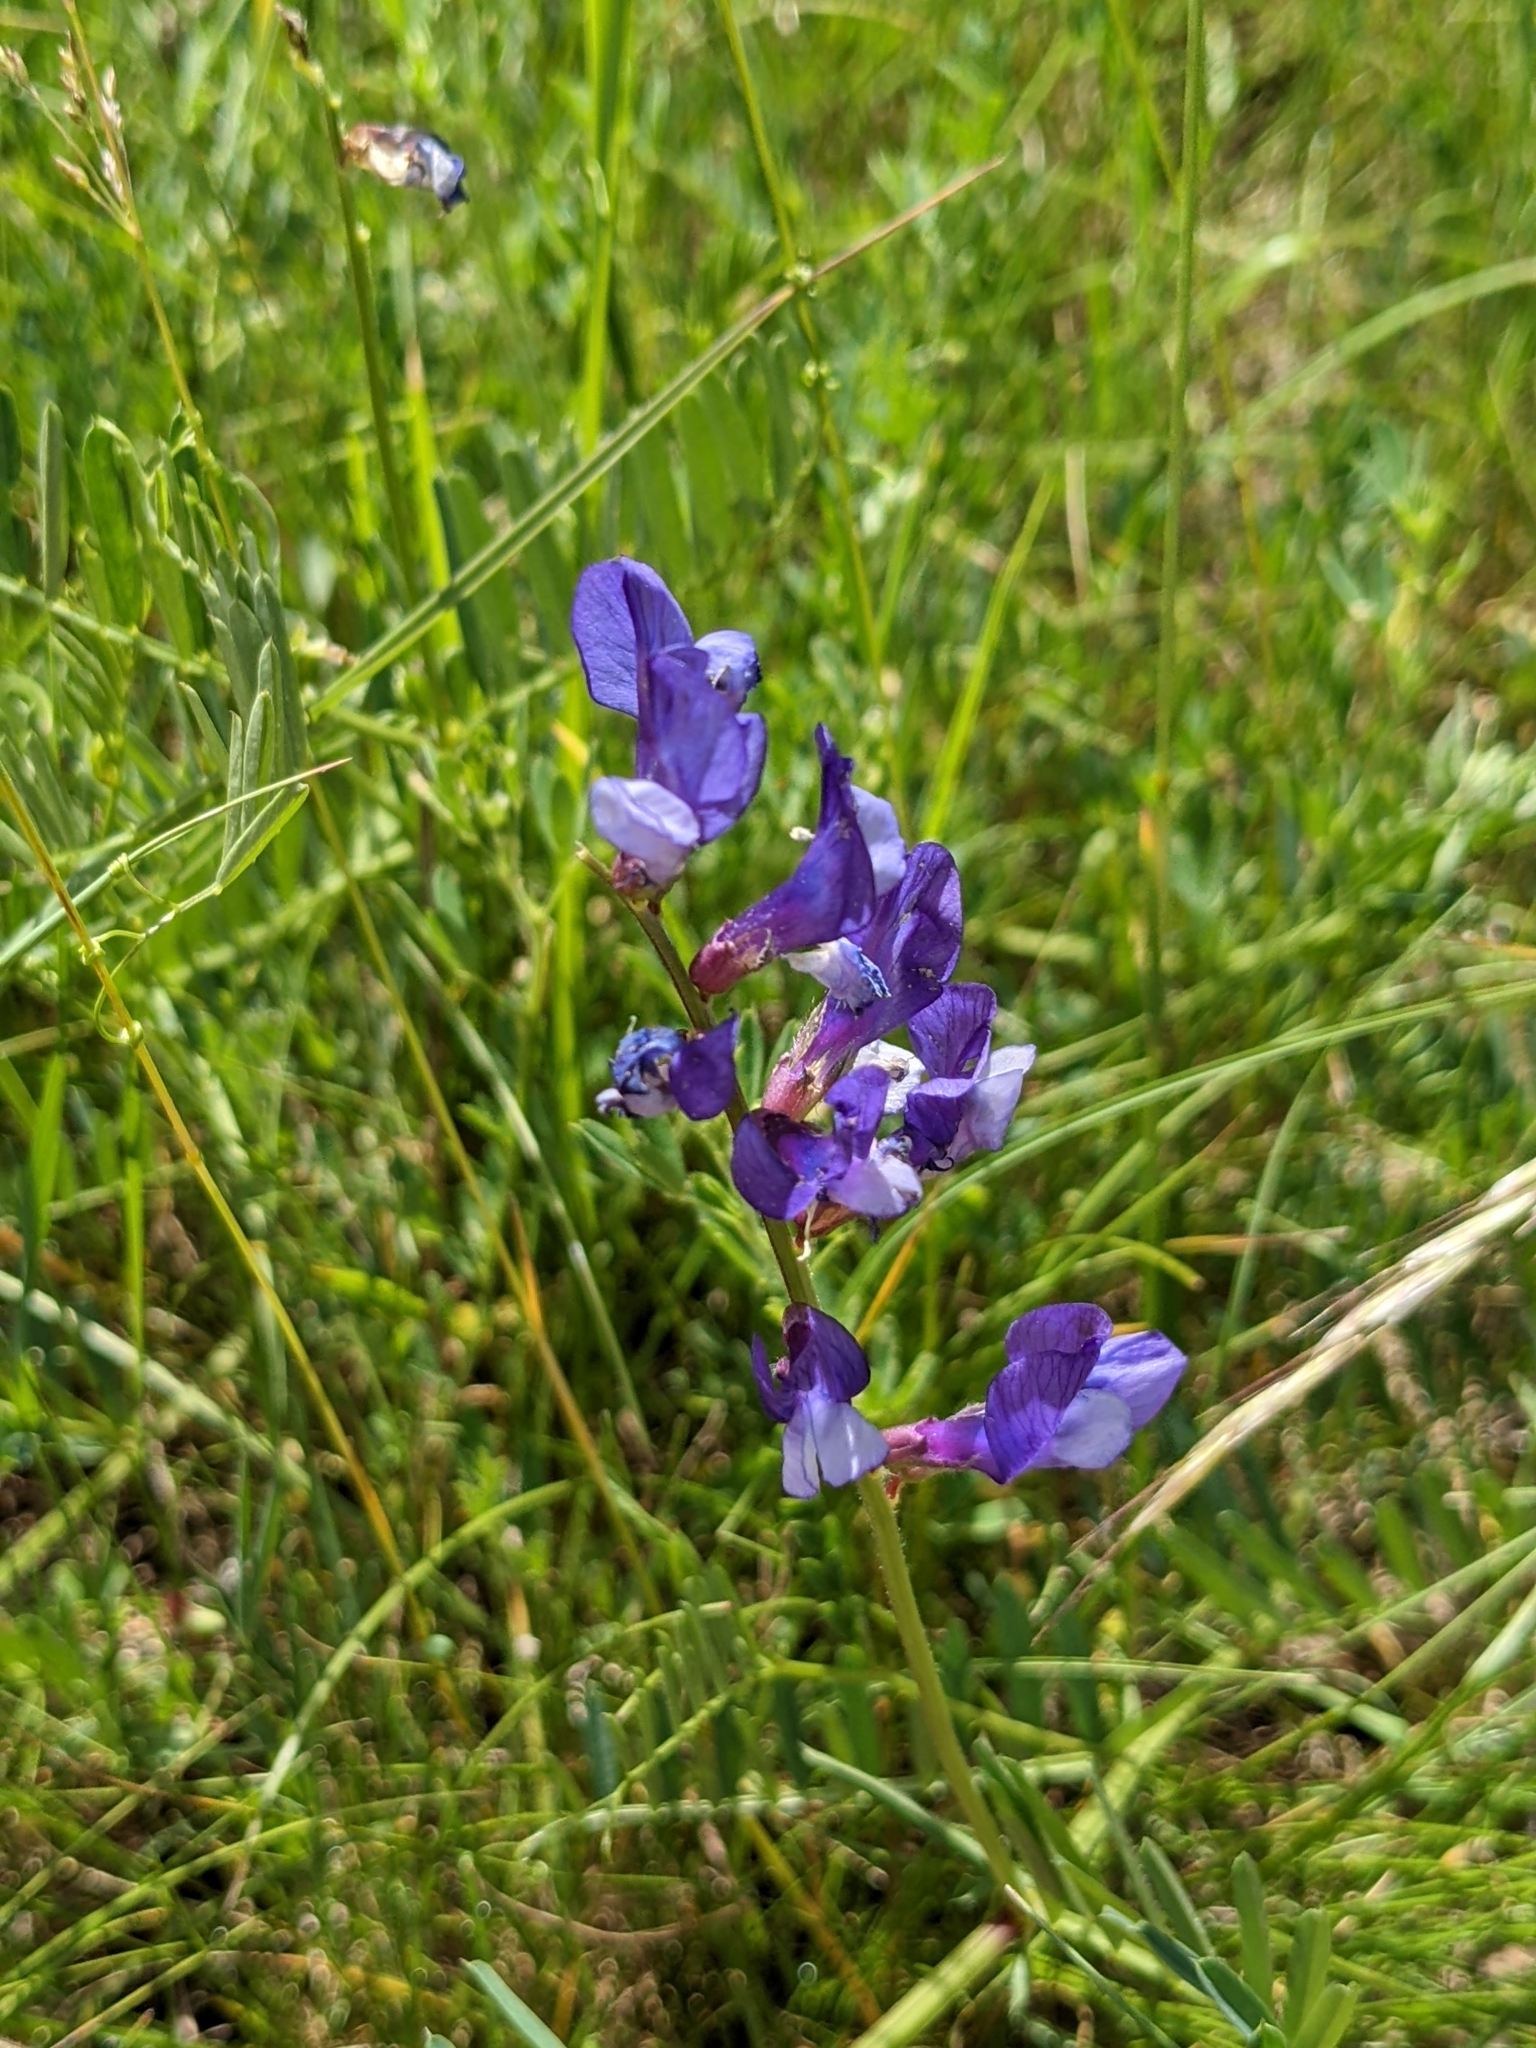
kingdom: Plantae
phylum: Tracheophyta
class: Magnoliopsida
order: Fabales
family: Fabaceae
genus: Vicia
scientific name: Vicia onobrychioides
